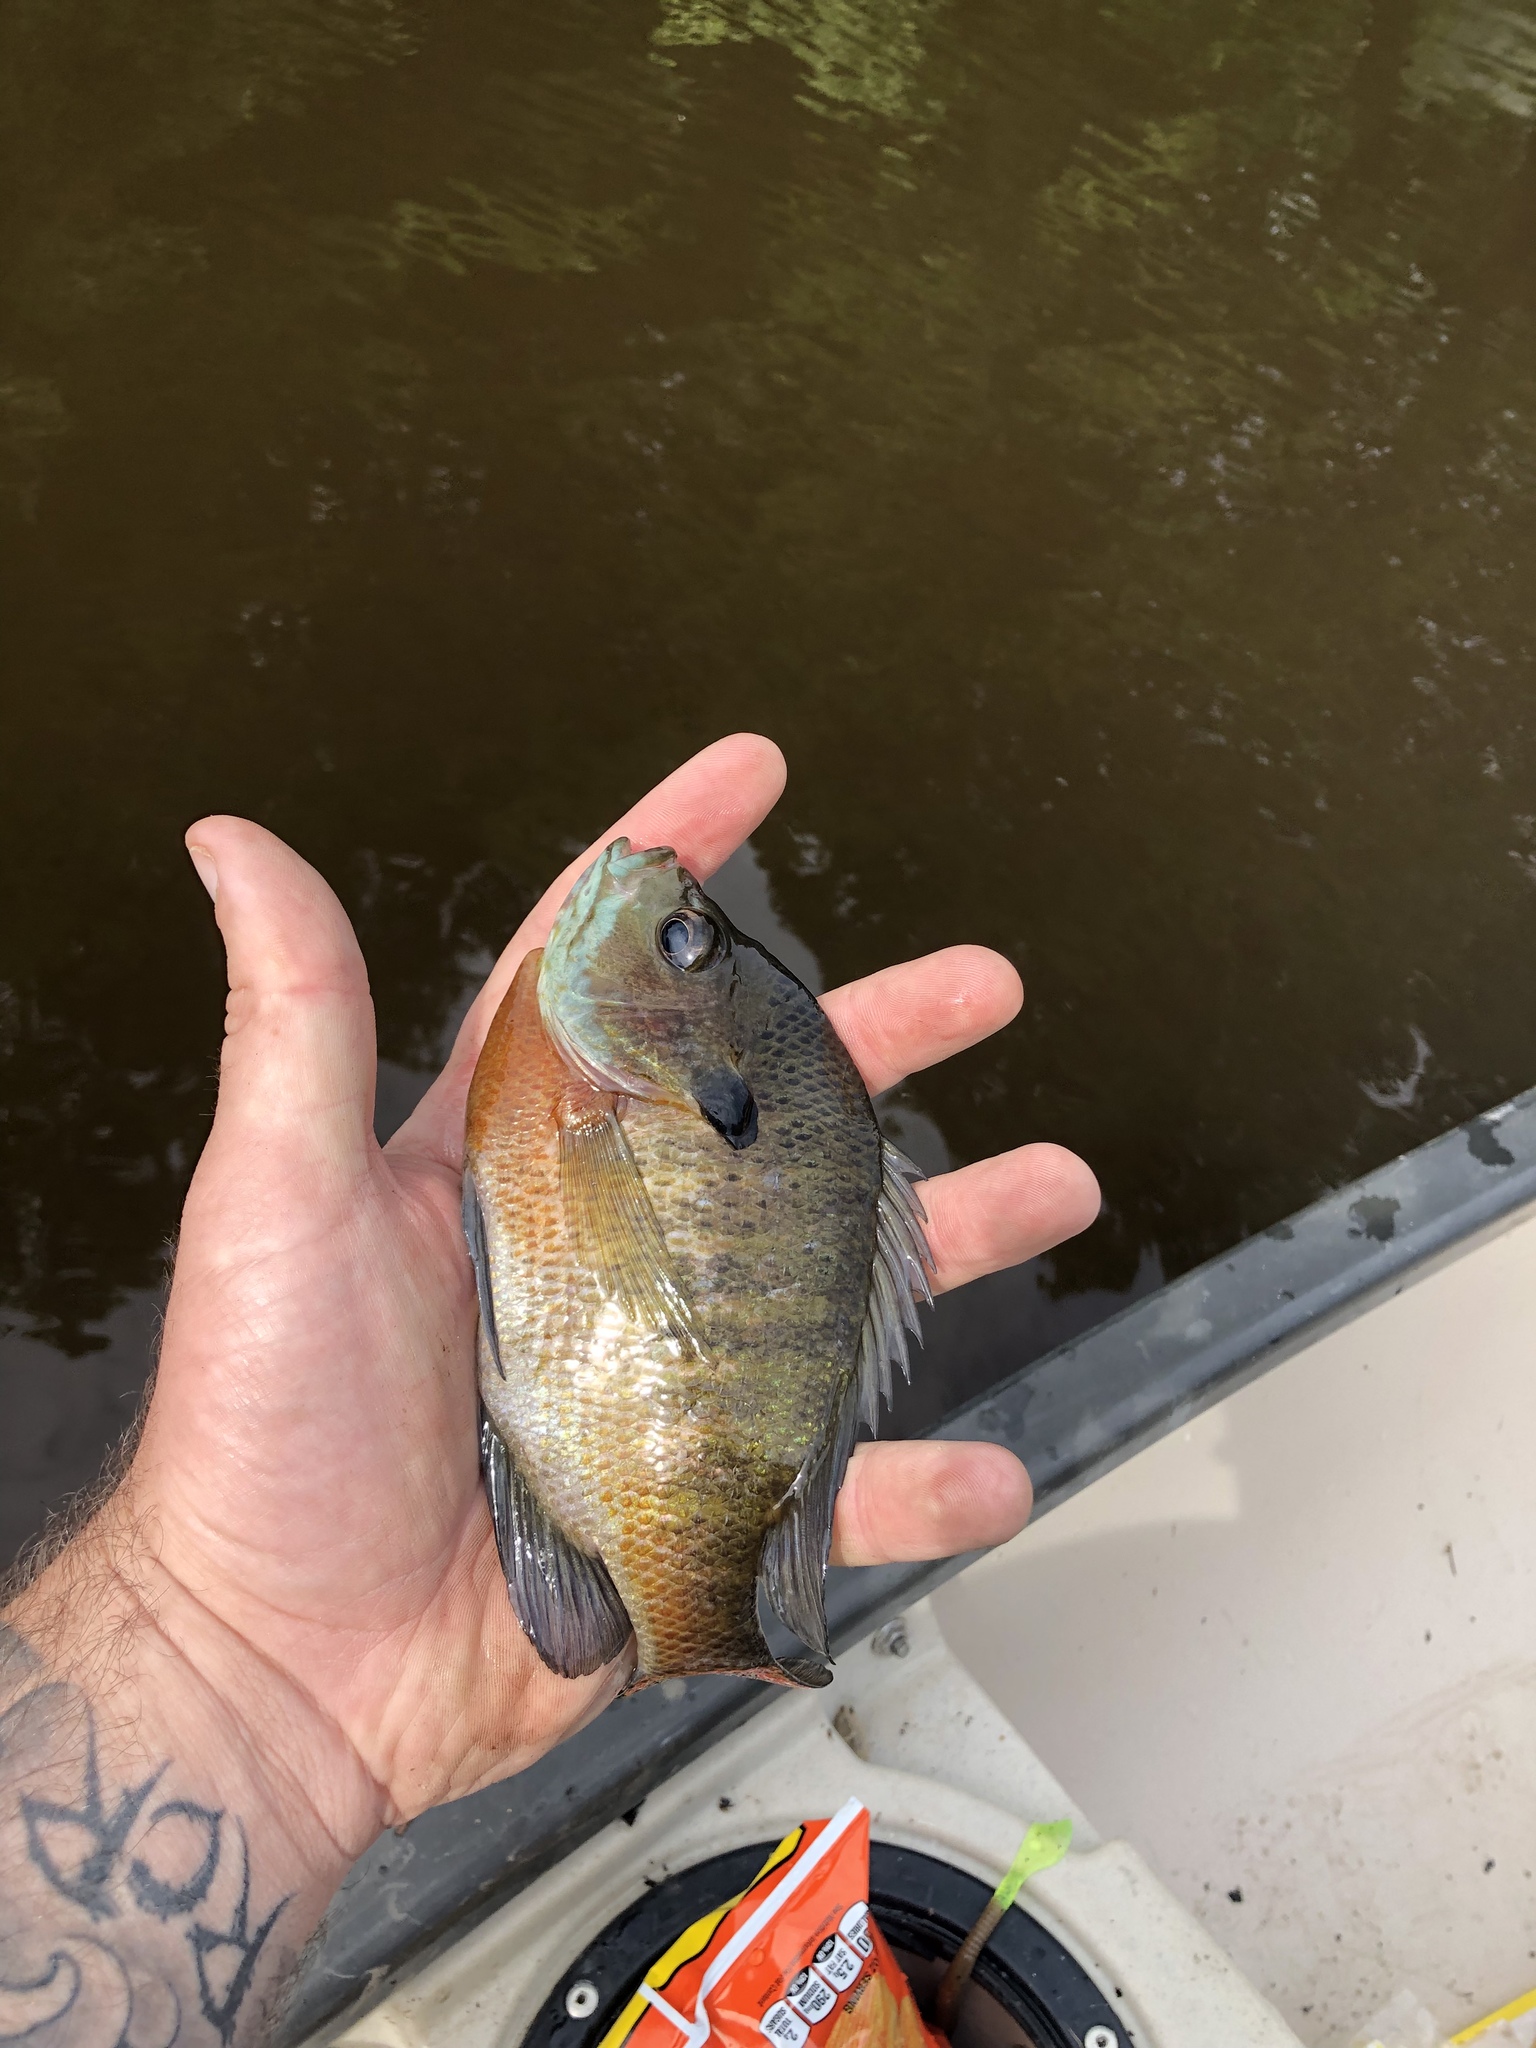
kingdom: Animalia
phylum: Chordata
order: Perciformes
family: Centrarchidae
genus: Lepomis
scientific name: Lepomis macrochirus
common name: Bluegill
